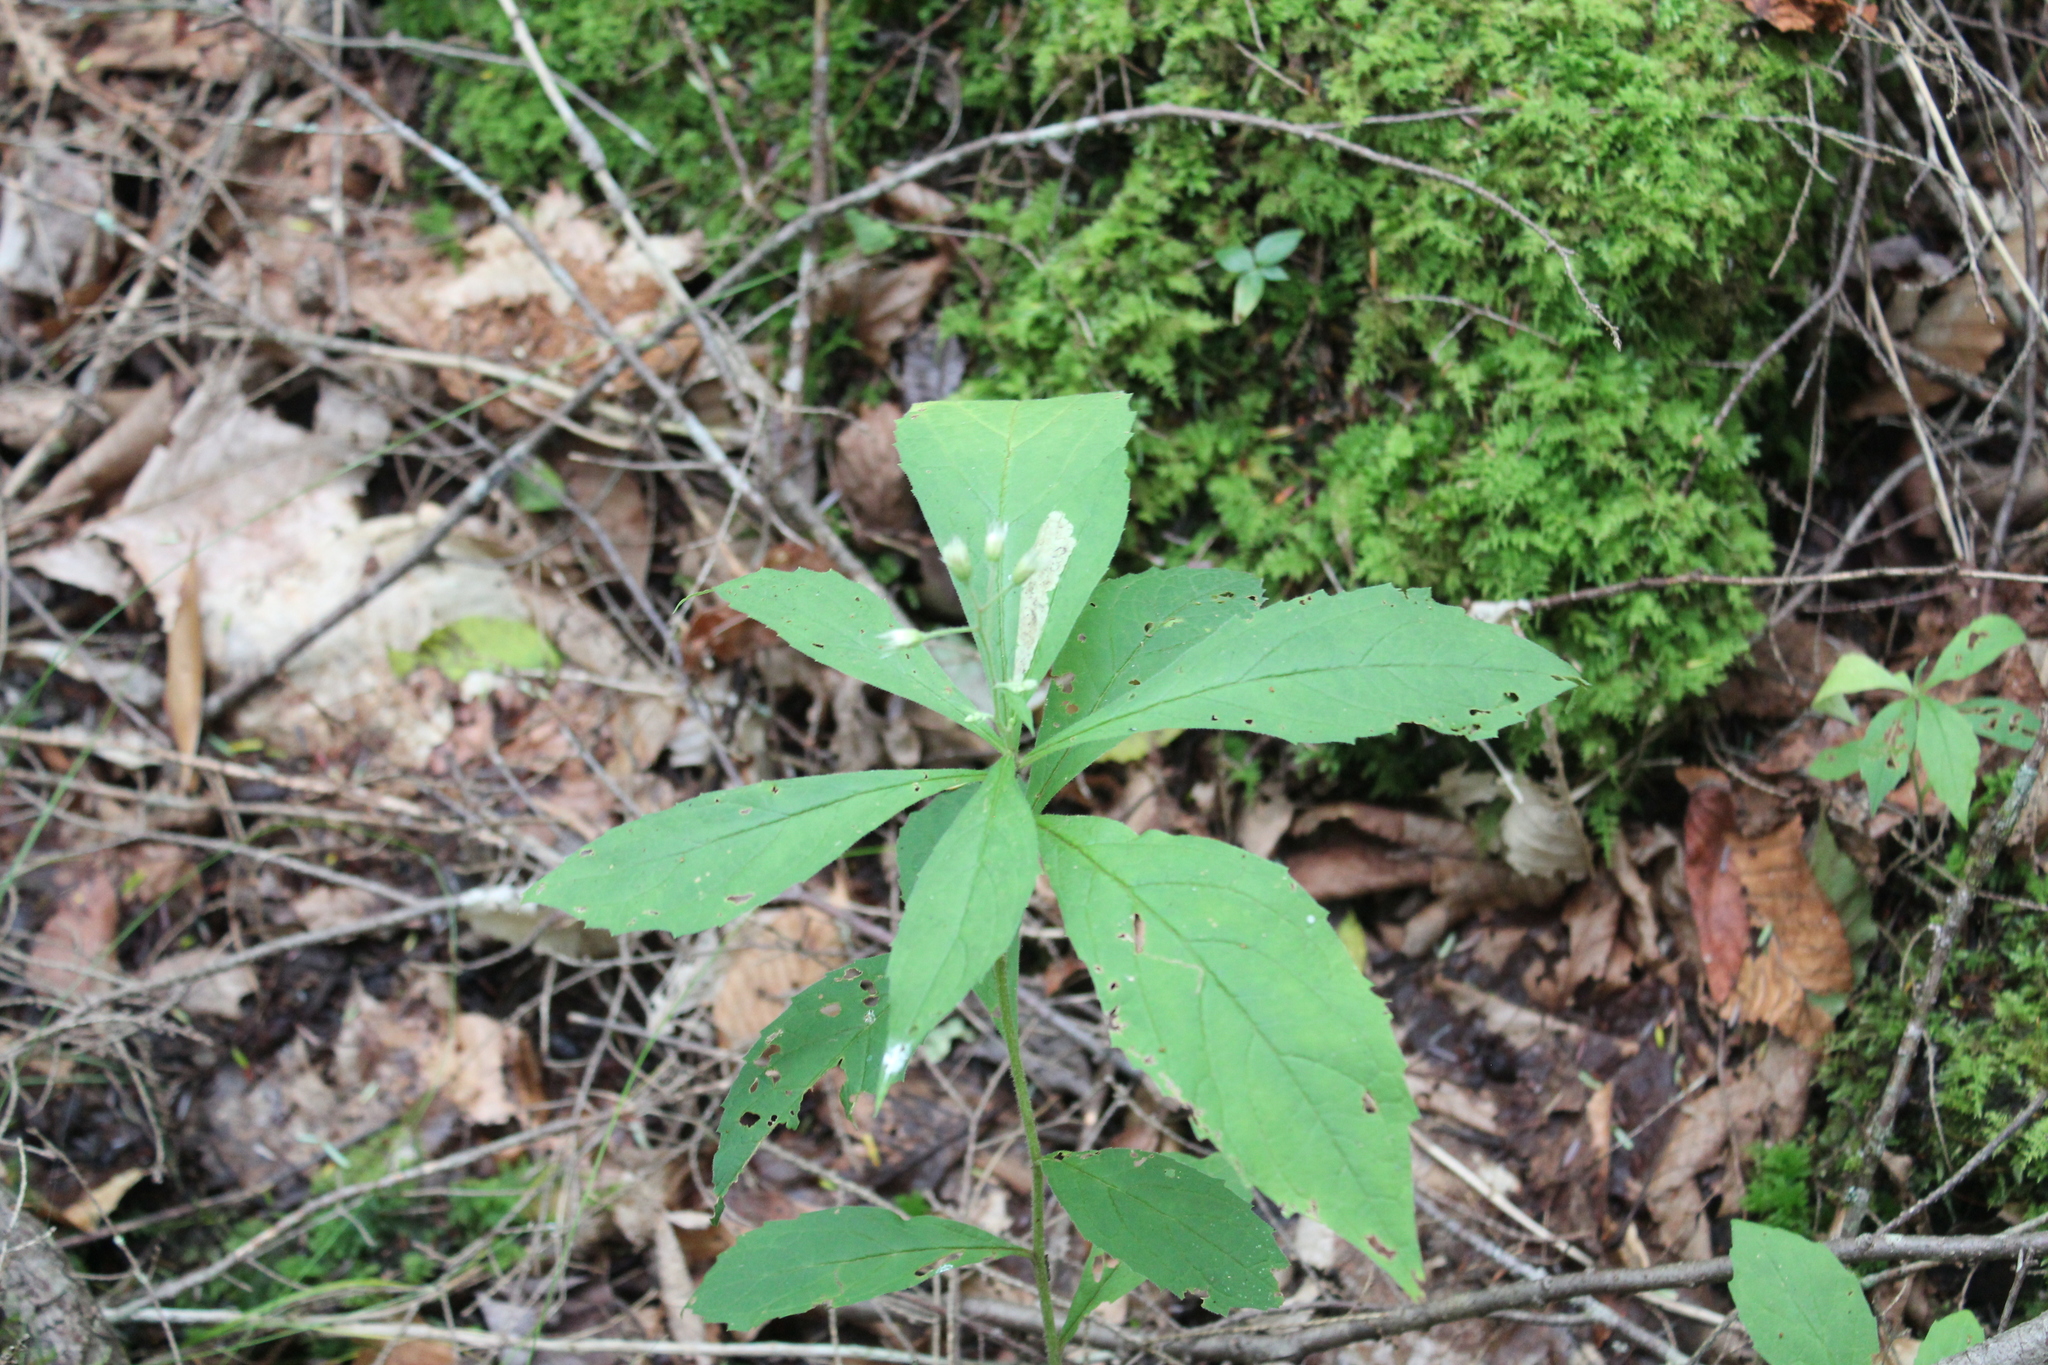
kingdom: Plantae
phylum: Tracheophyta
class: Magnoliopsida
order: Asterales
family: Asteraceae
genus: Oclemena
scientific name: Oclemena acuminata
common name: Mountain aster
